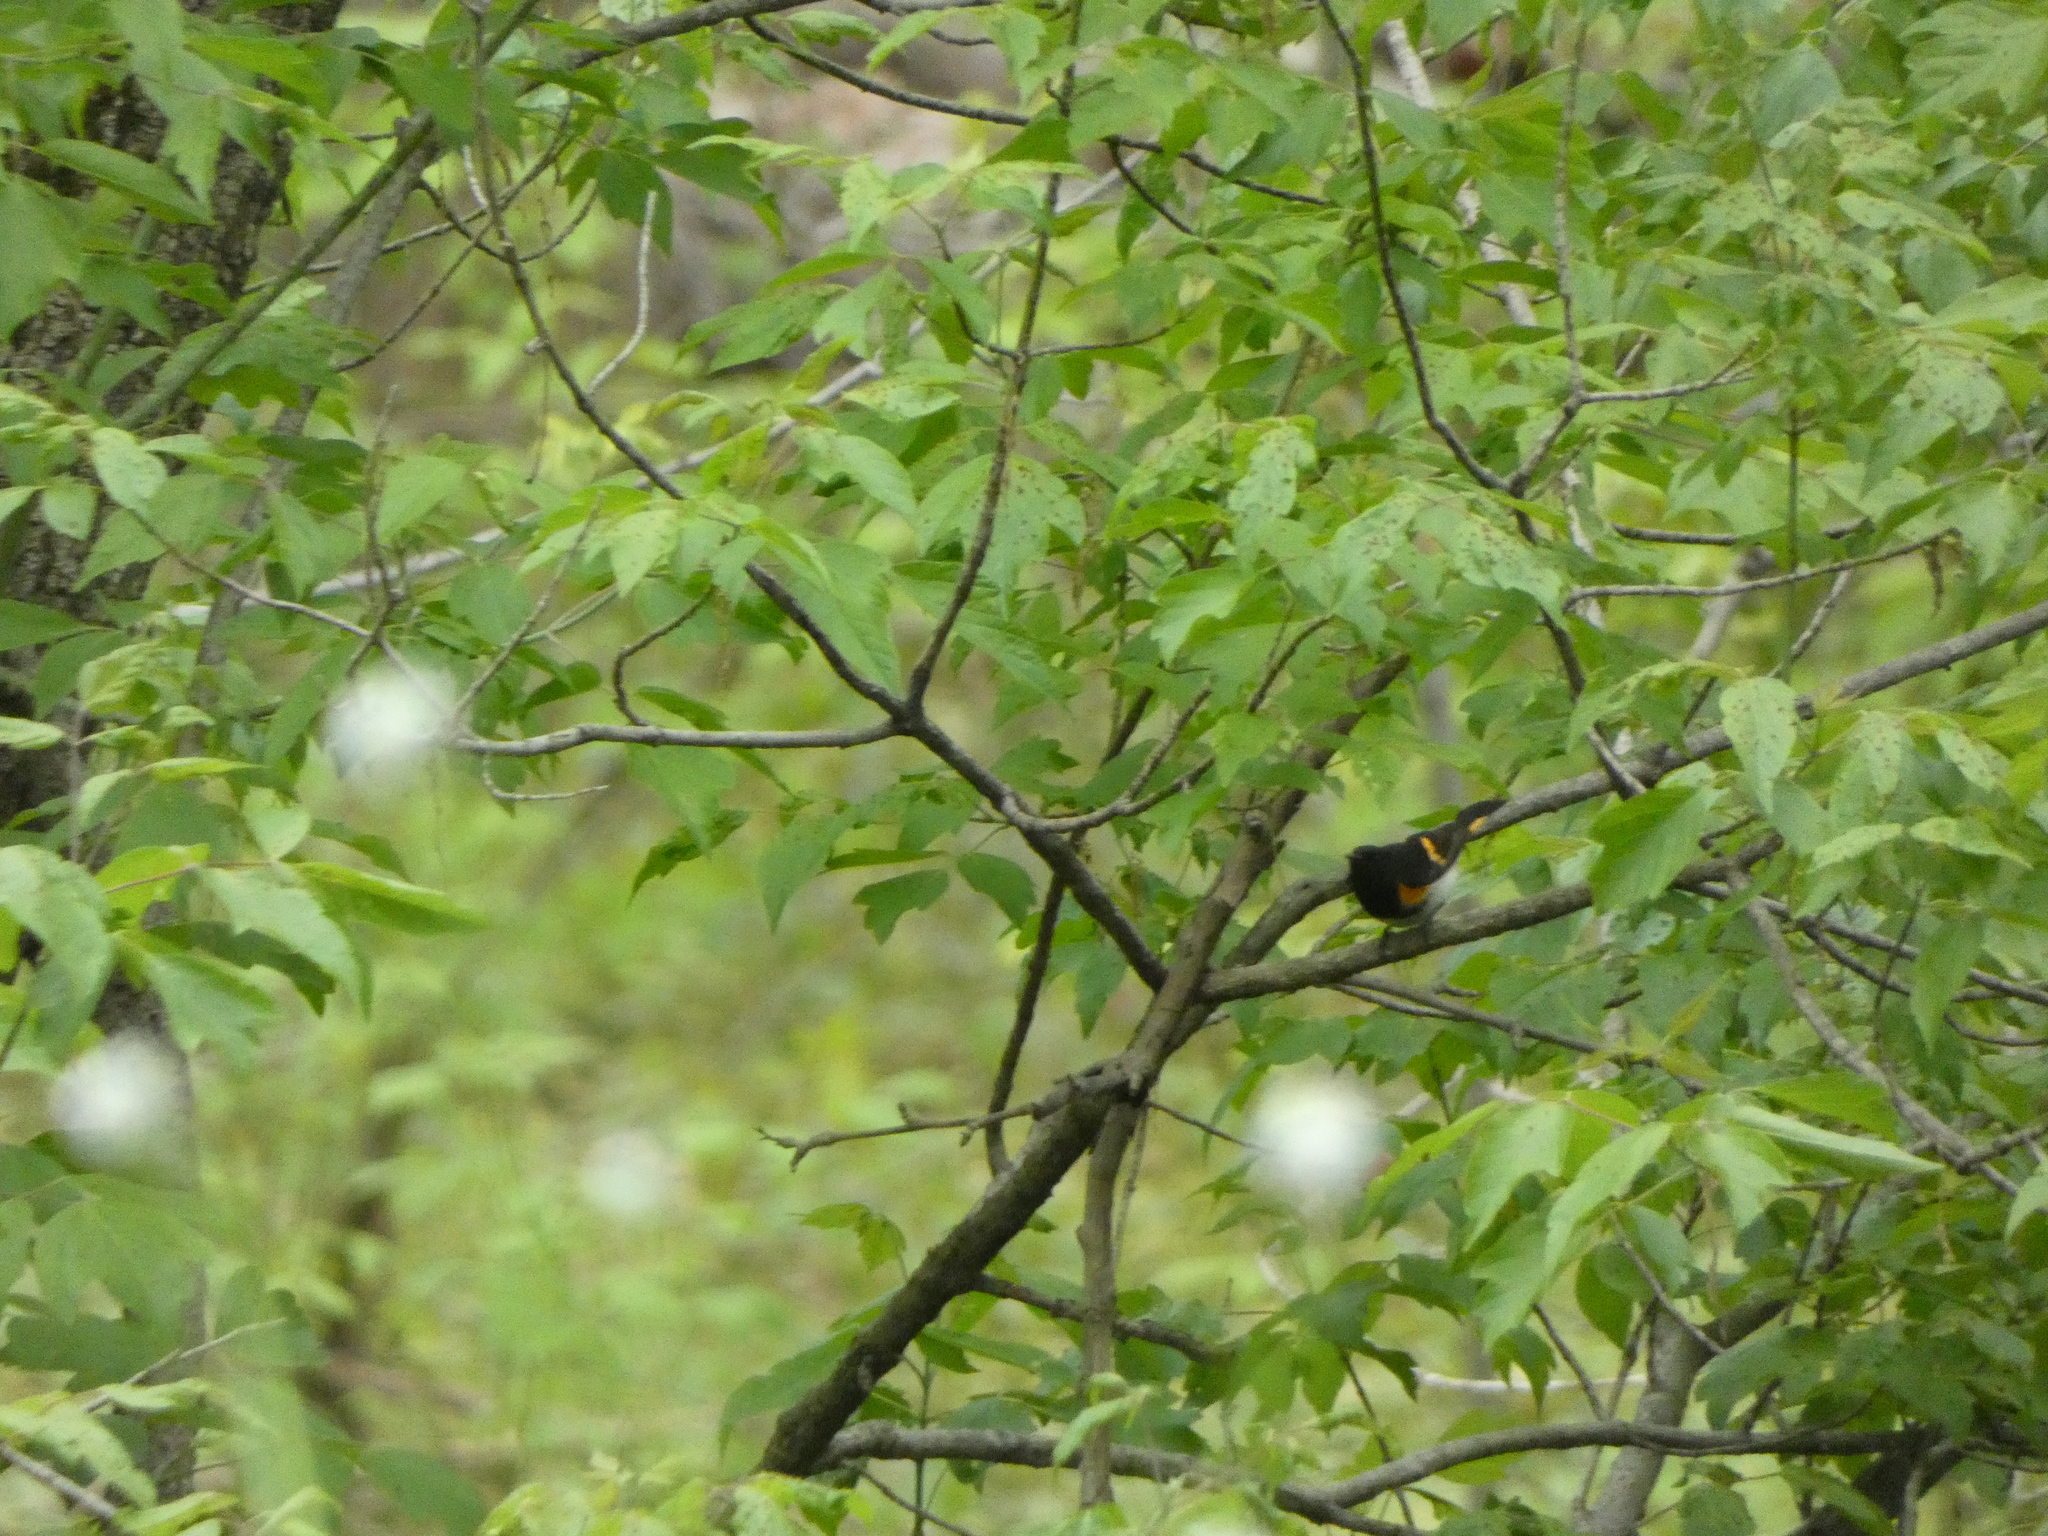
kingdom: Animalia
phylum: Chordata
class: Aves
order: Passeriformes
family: Parulidae
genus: Setophaga
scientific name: Setophaga ruticilla
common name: American redstart
